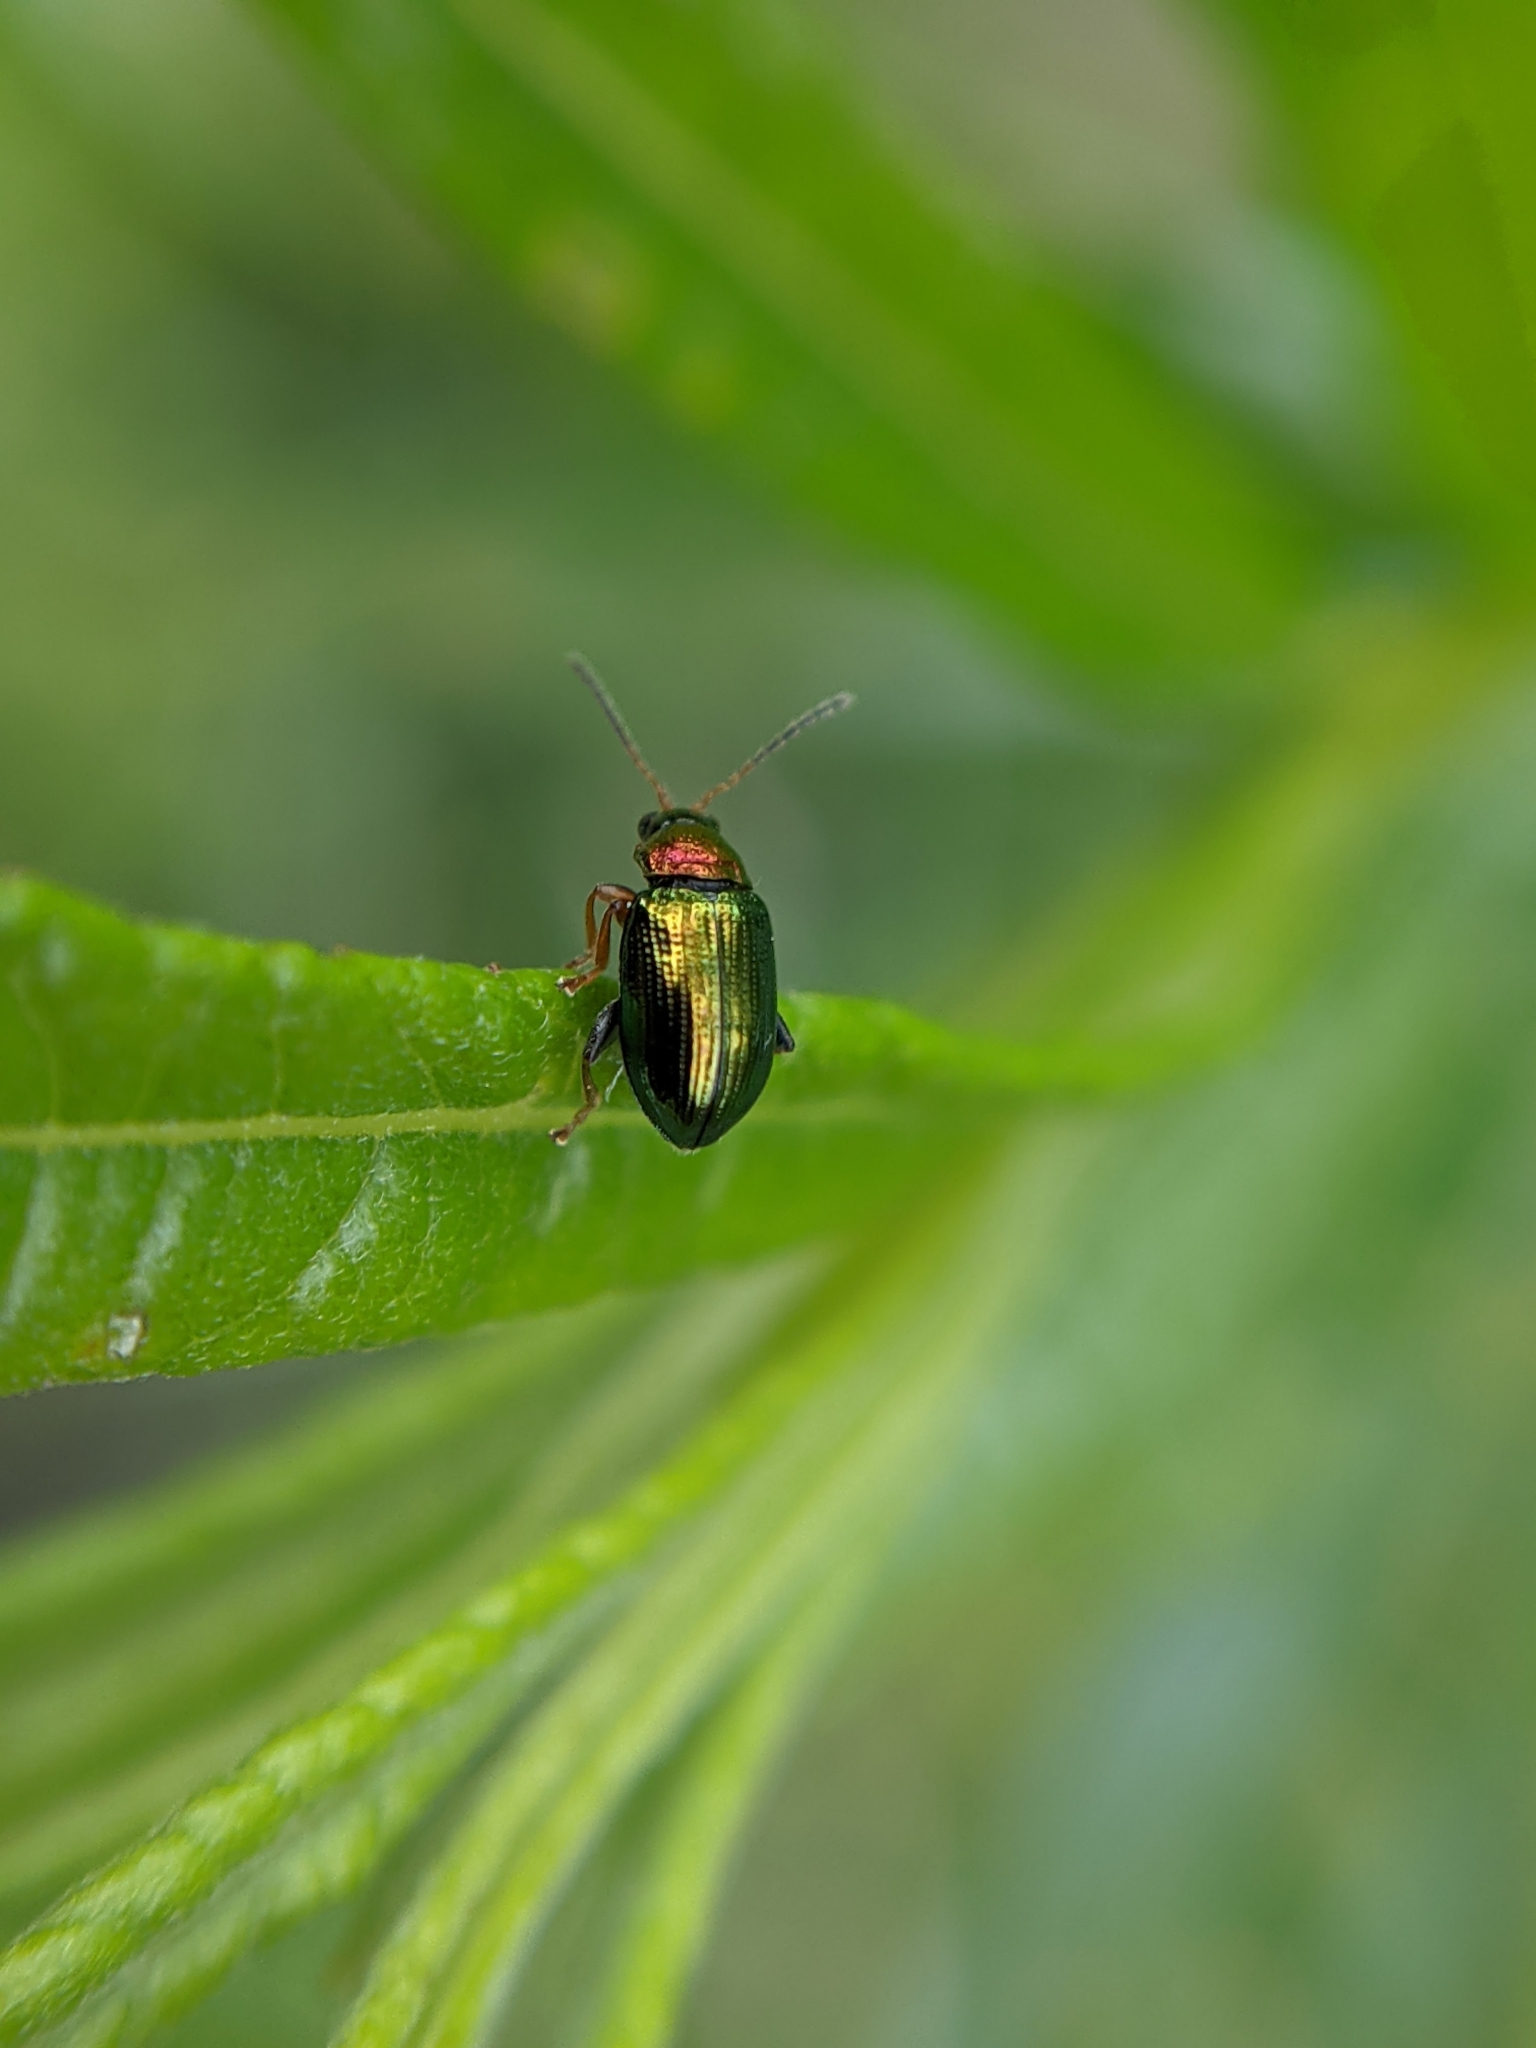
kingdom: Animalia
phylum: Arthropoda
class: Insecta
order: Coleoptera
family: Chrysomelidae
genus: Crepidodera
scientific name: Crepidodera aurata
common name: Willow flea beetle
